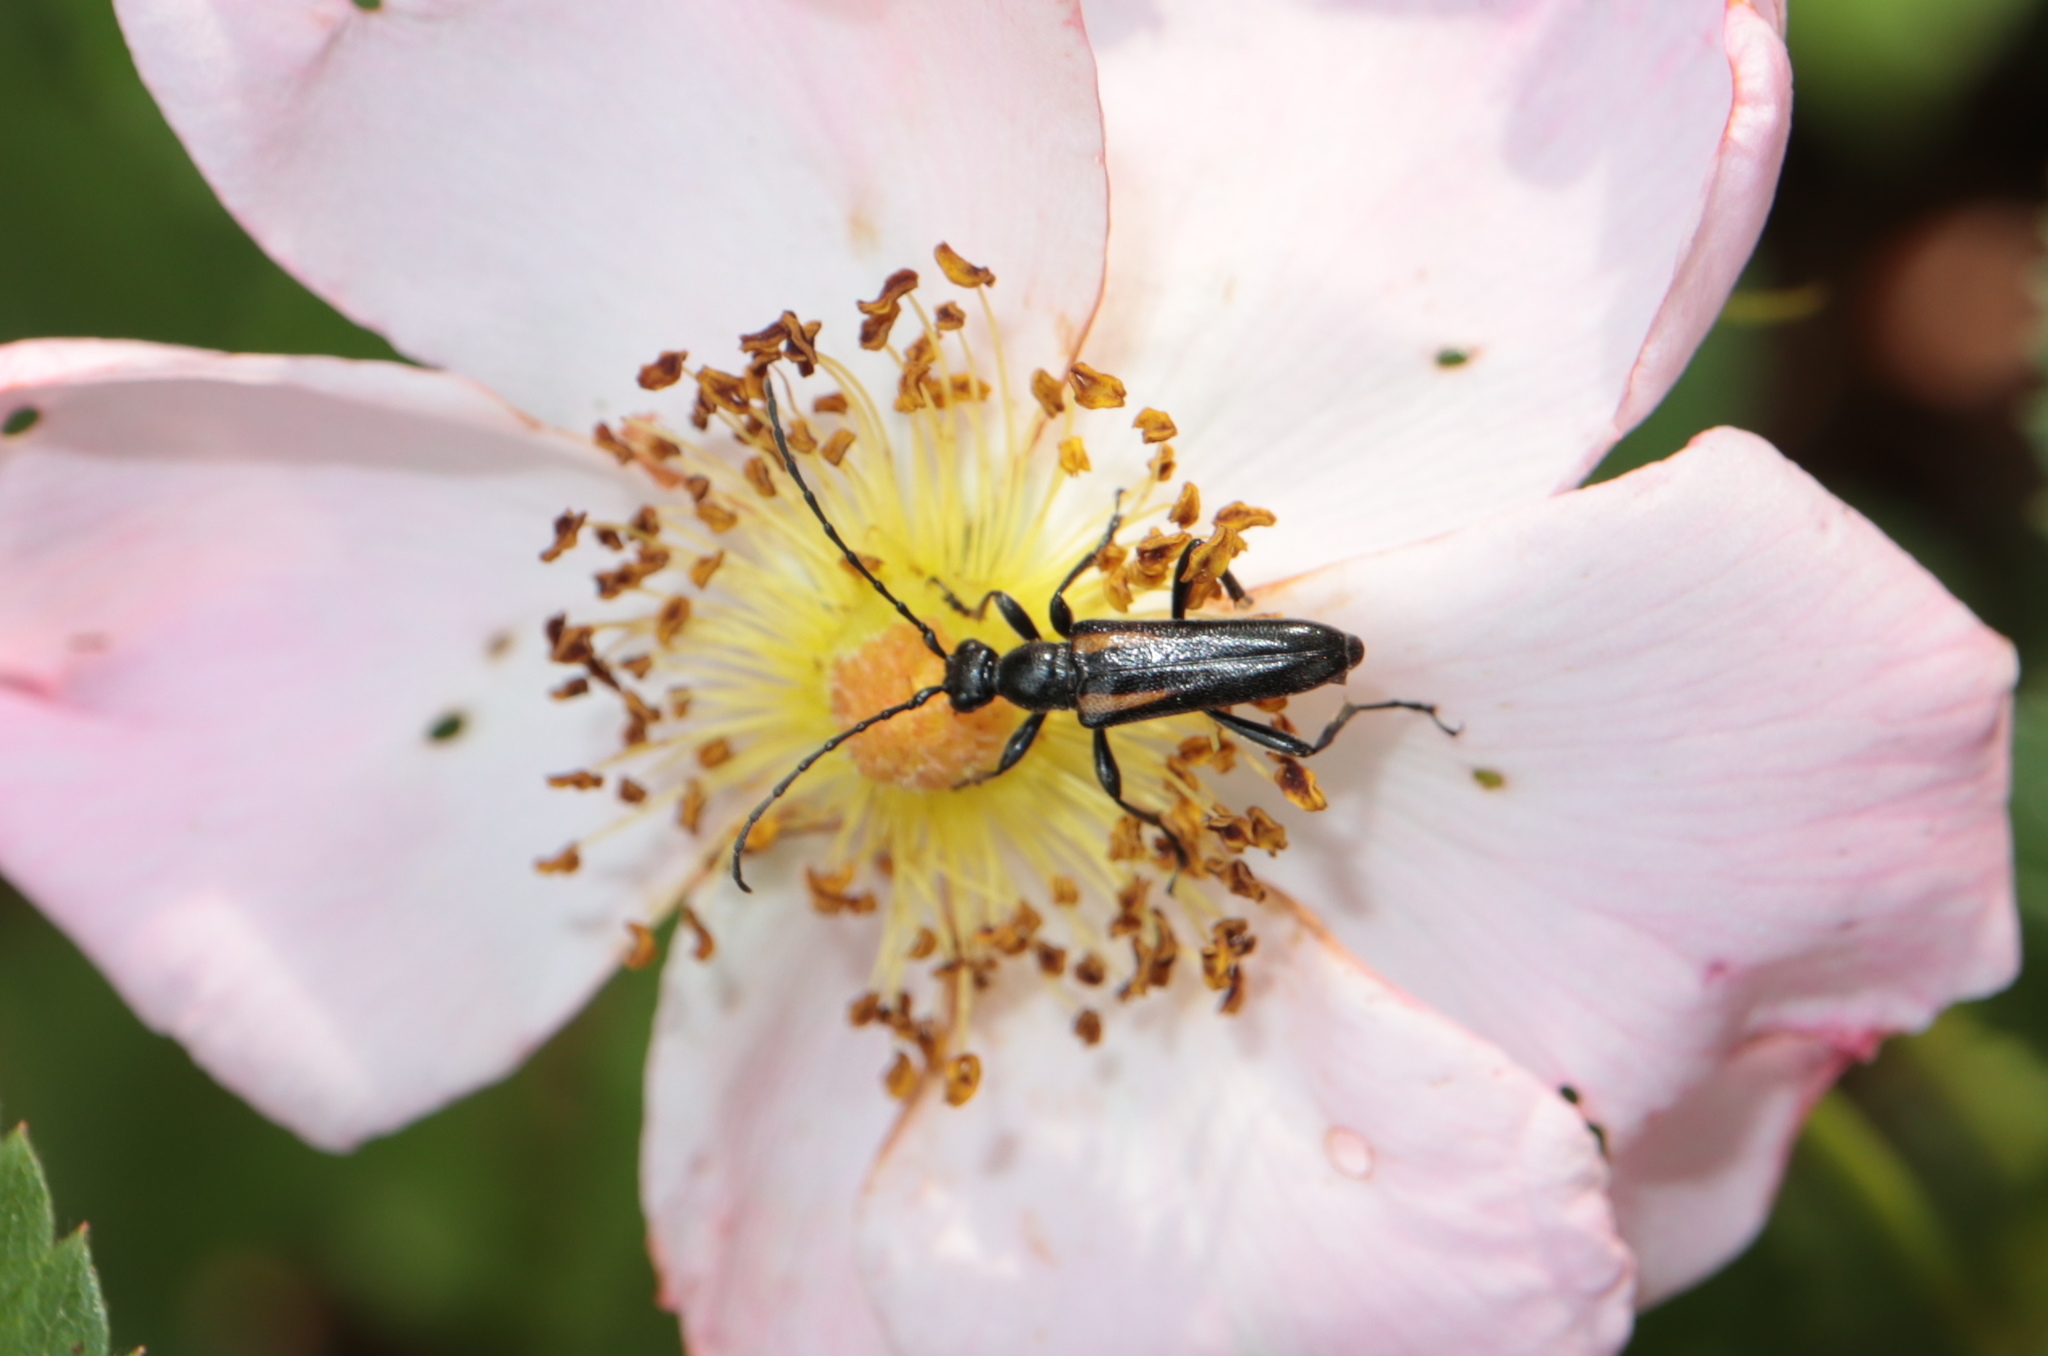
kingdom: Animalia
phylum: Arthropoda
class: Insecta
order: Coleoptera
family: Cerambycidae
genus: Strangalepta
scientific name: Strangalepta abbreviata
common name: Strangalepta flower longhorn beetle
